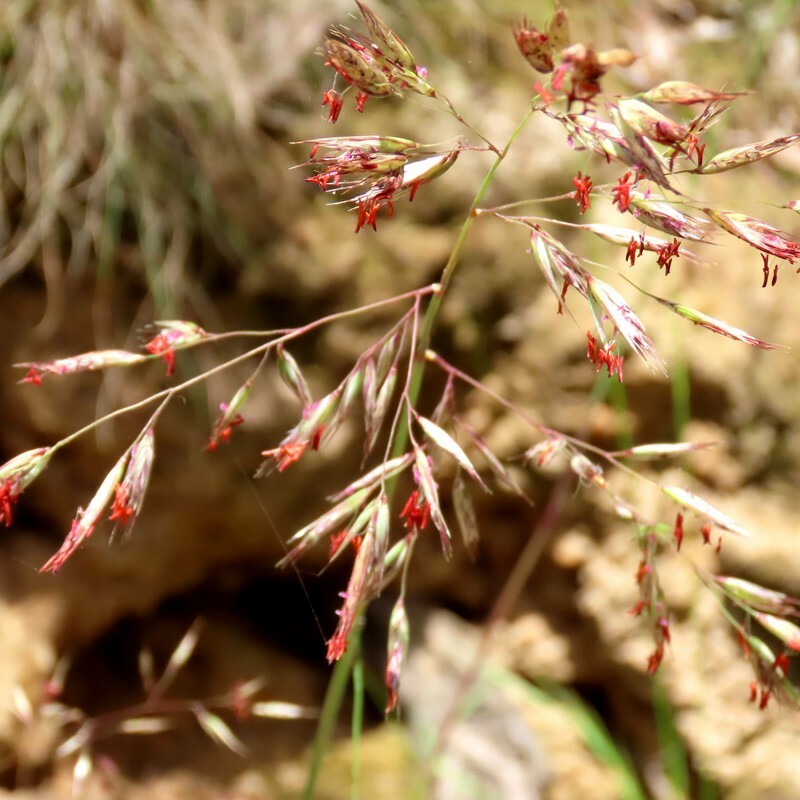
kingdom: Plantae
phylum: Tracheophyta
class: Liliopsida
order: Poales
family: Poaceae
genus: Rytidosperma
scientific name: Rytidosperma pallidum
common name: Red-anther wallaby grass
